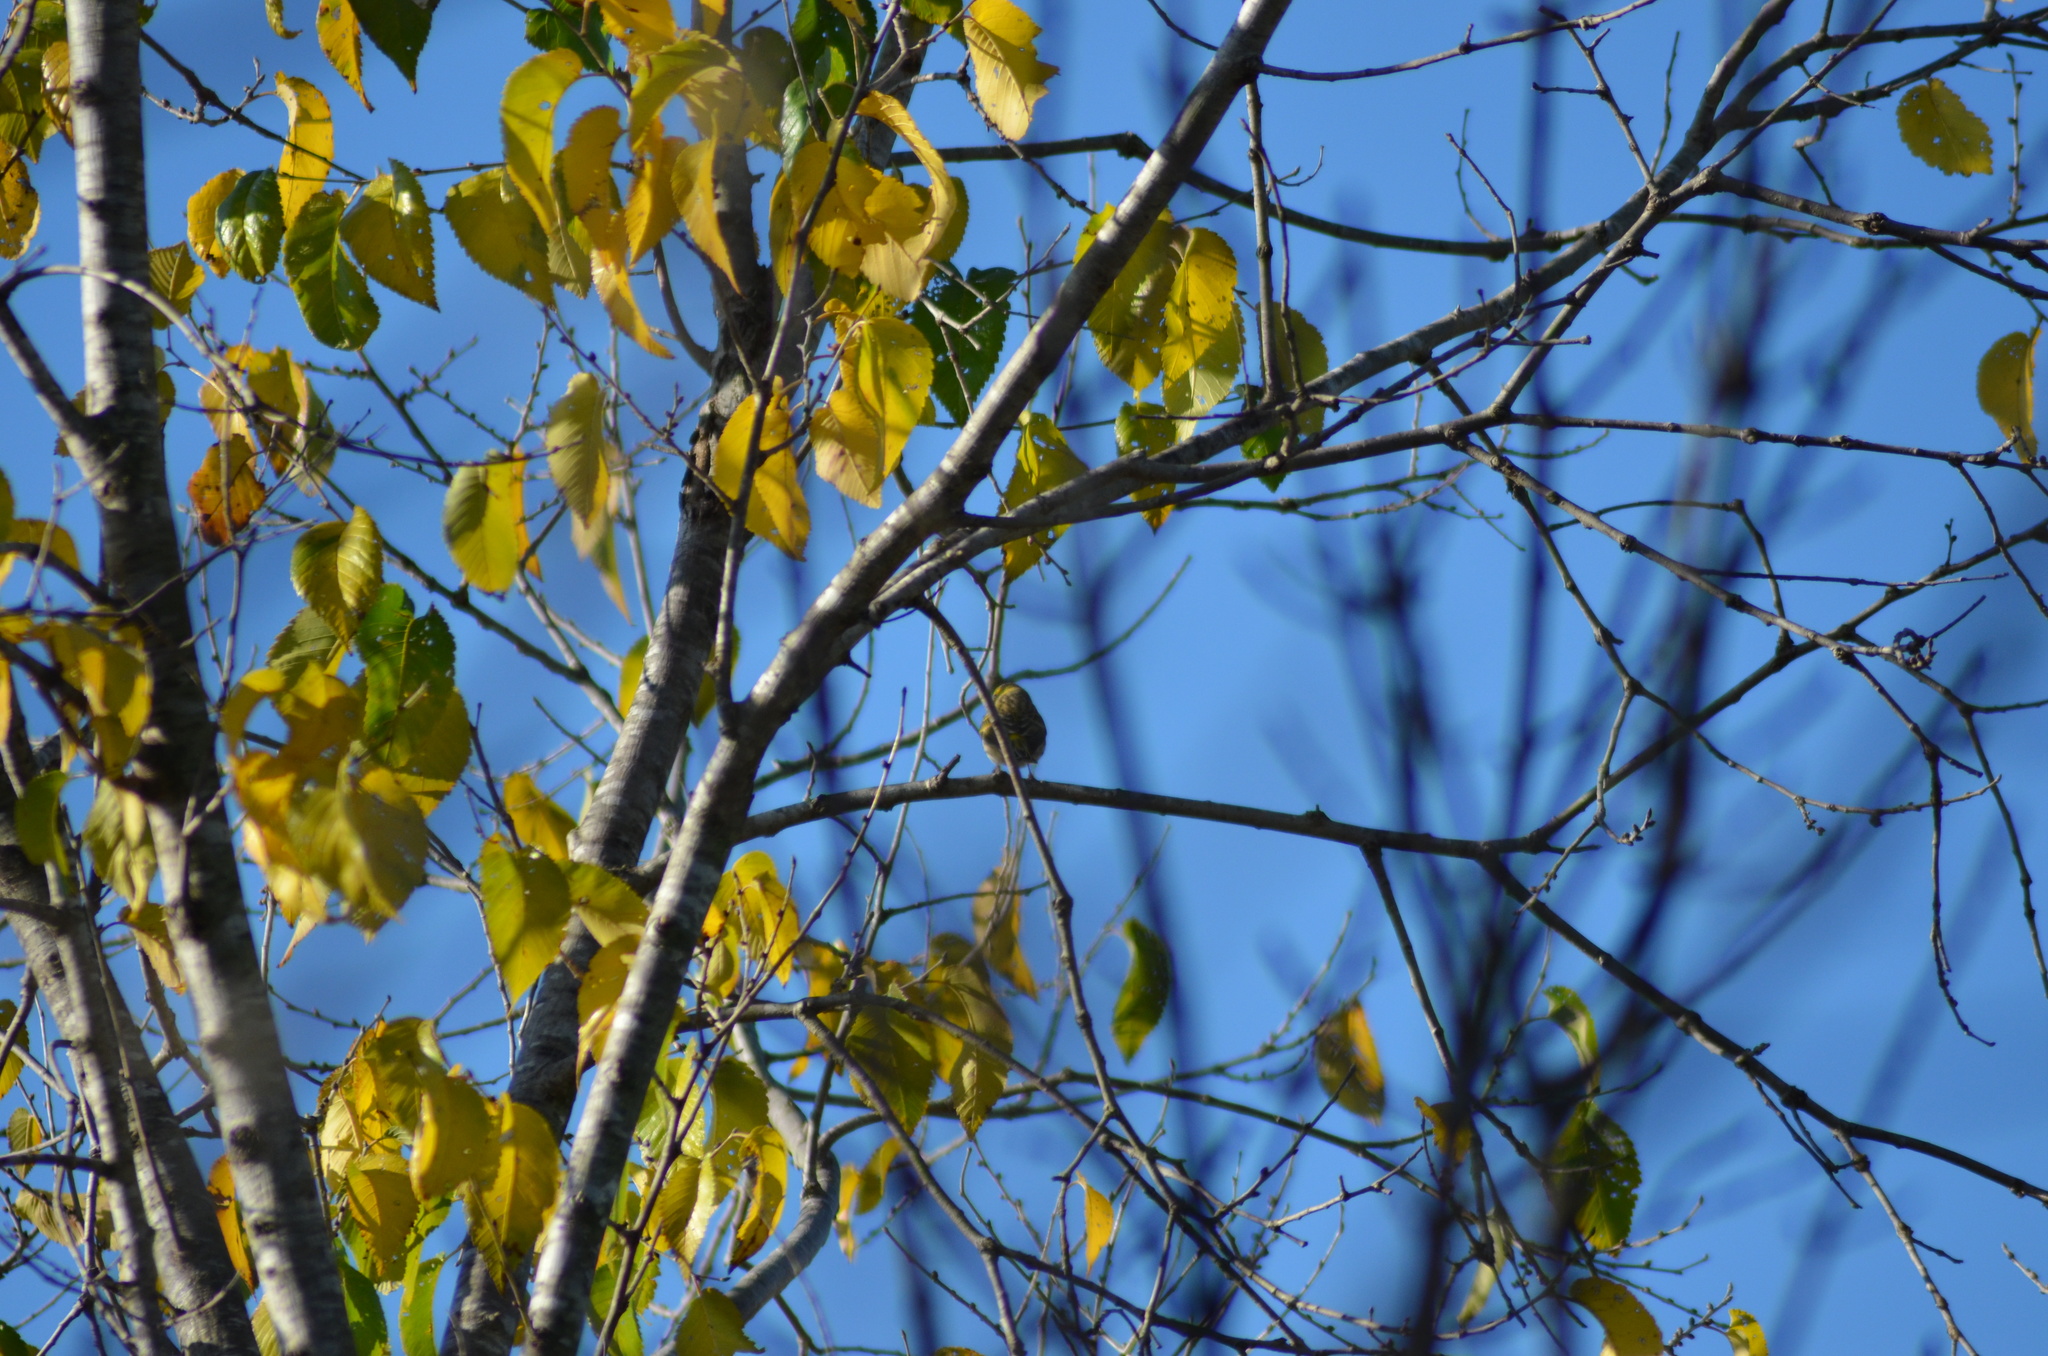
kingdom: Animalia
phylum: Chordata
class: Aves
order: Passeriformes
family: Fringillidae
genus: Serinus
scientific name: Serinus serinus
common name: European serin
